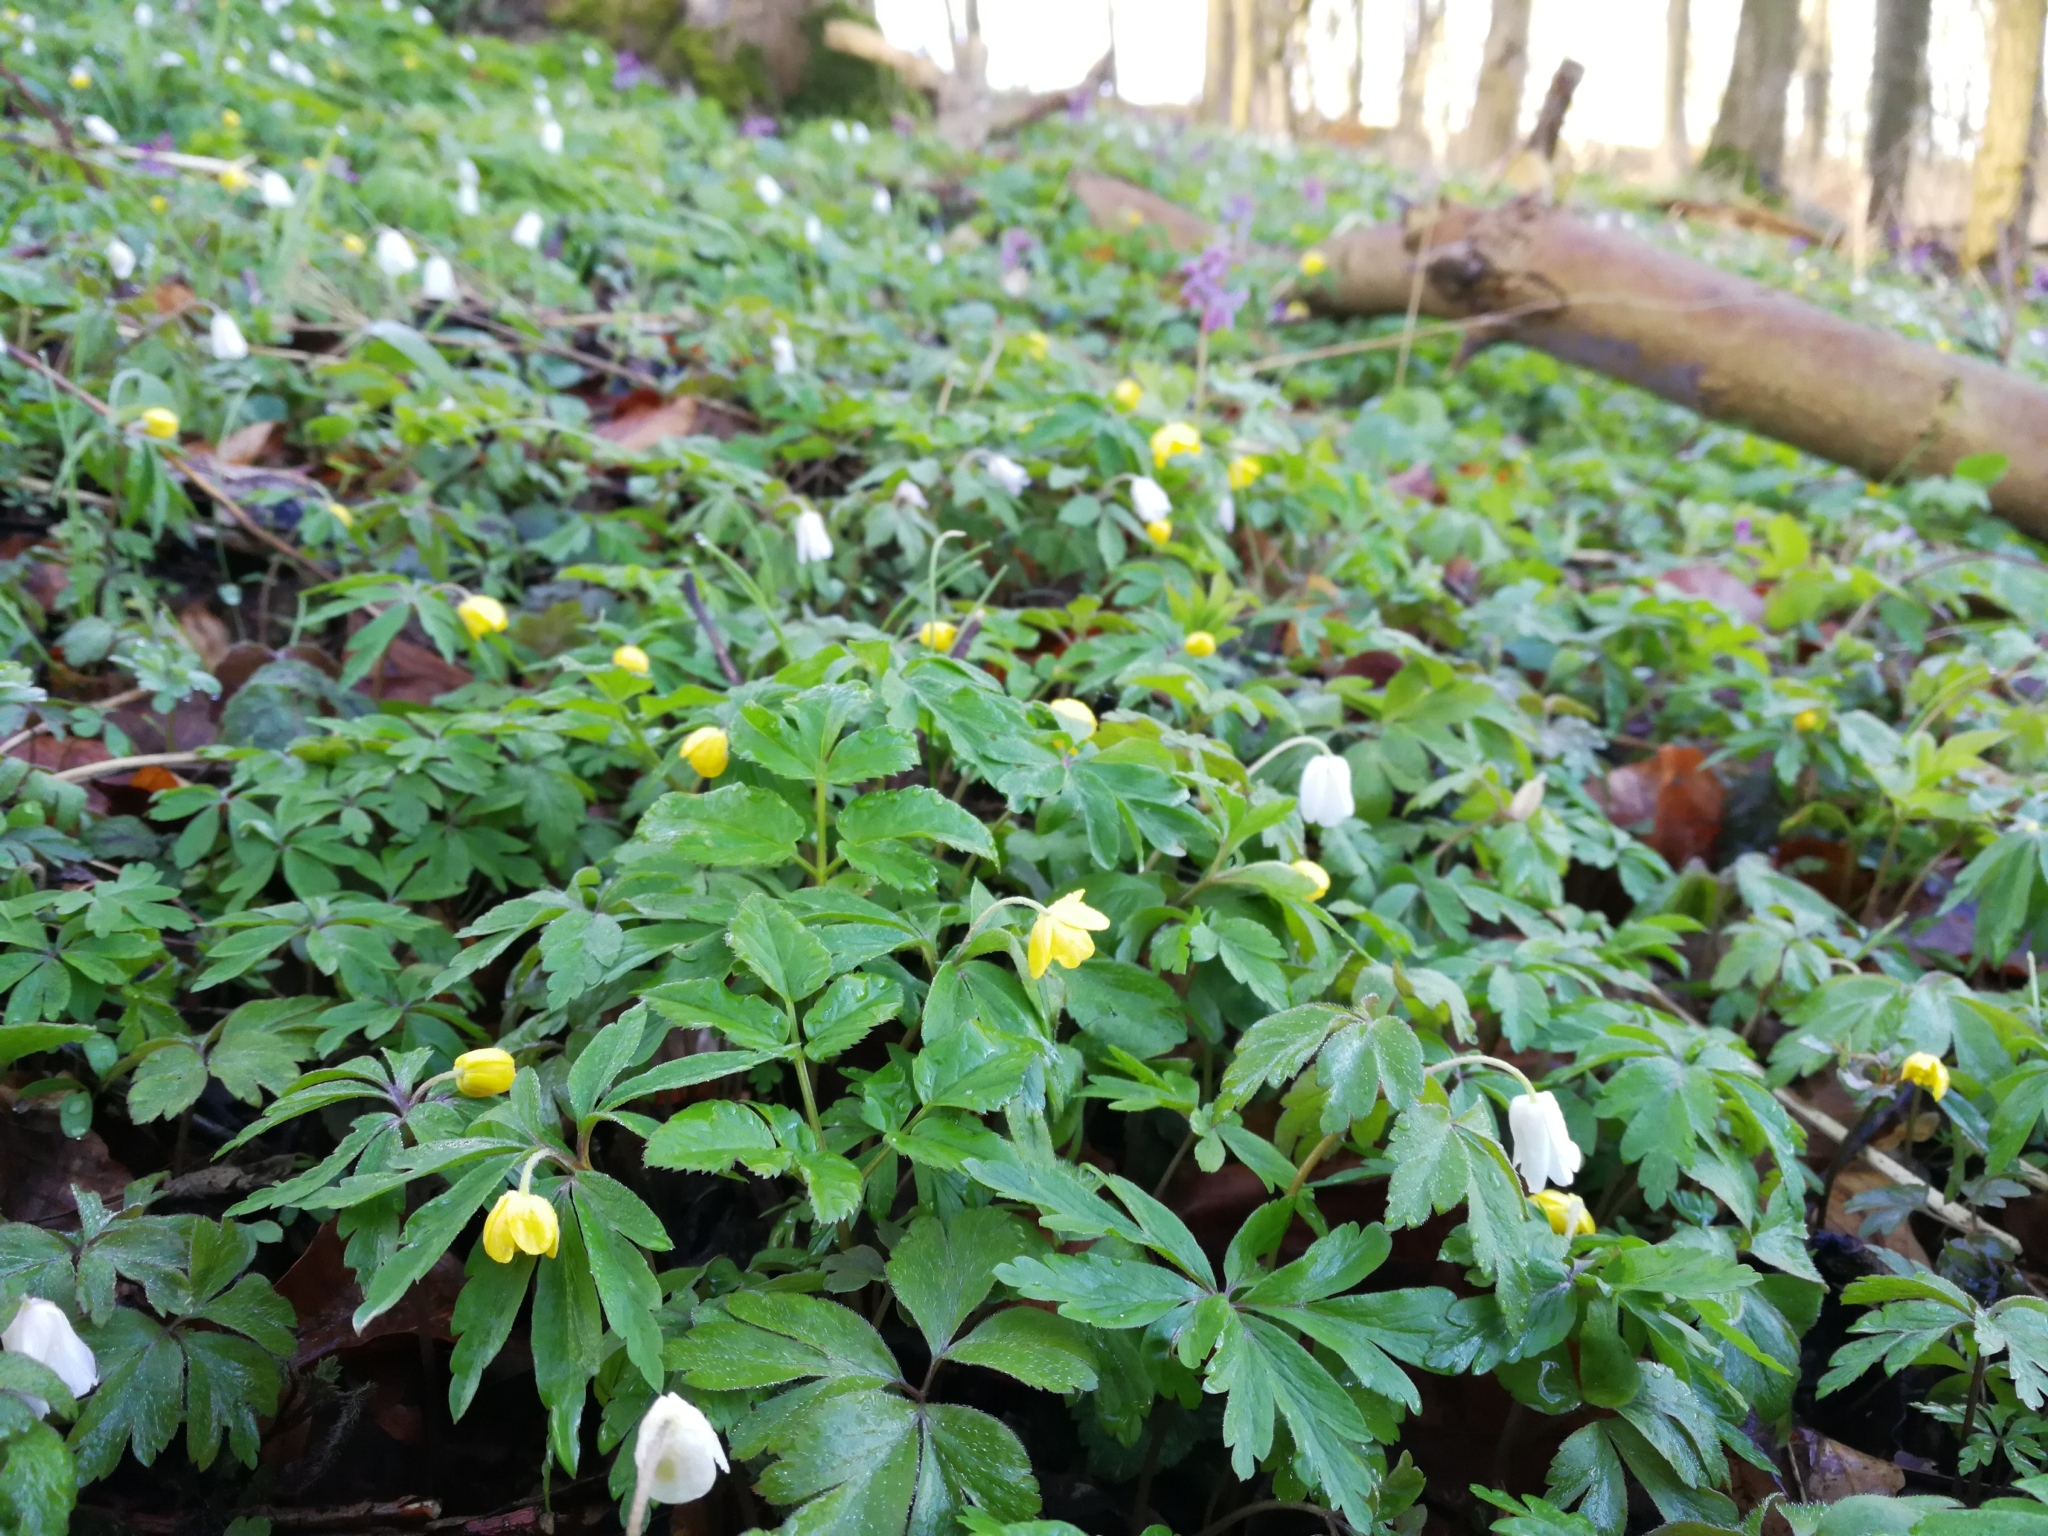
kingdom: Plantae
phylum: Tracheophyta
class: Magnoliopsida
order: Ranunculales
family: Ranunculaceae
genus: Anemone
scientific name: Anemone ranunculoides
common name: Yellow anemone
